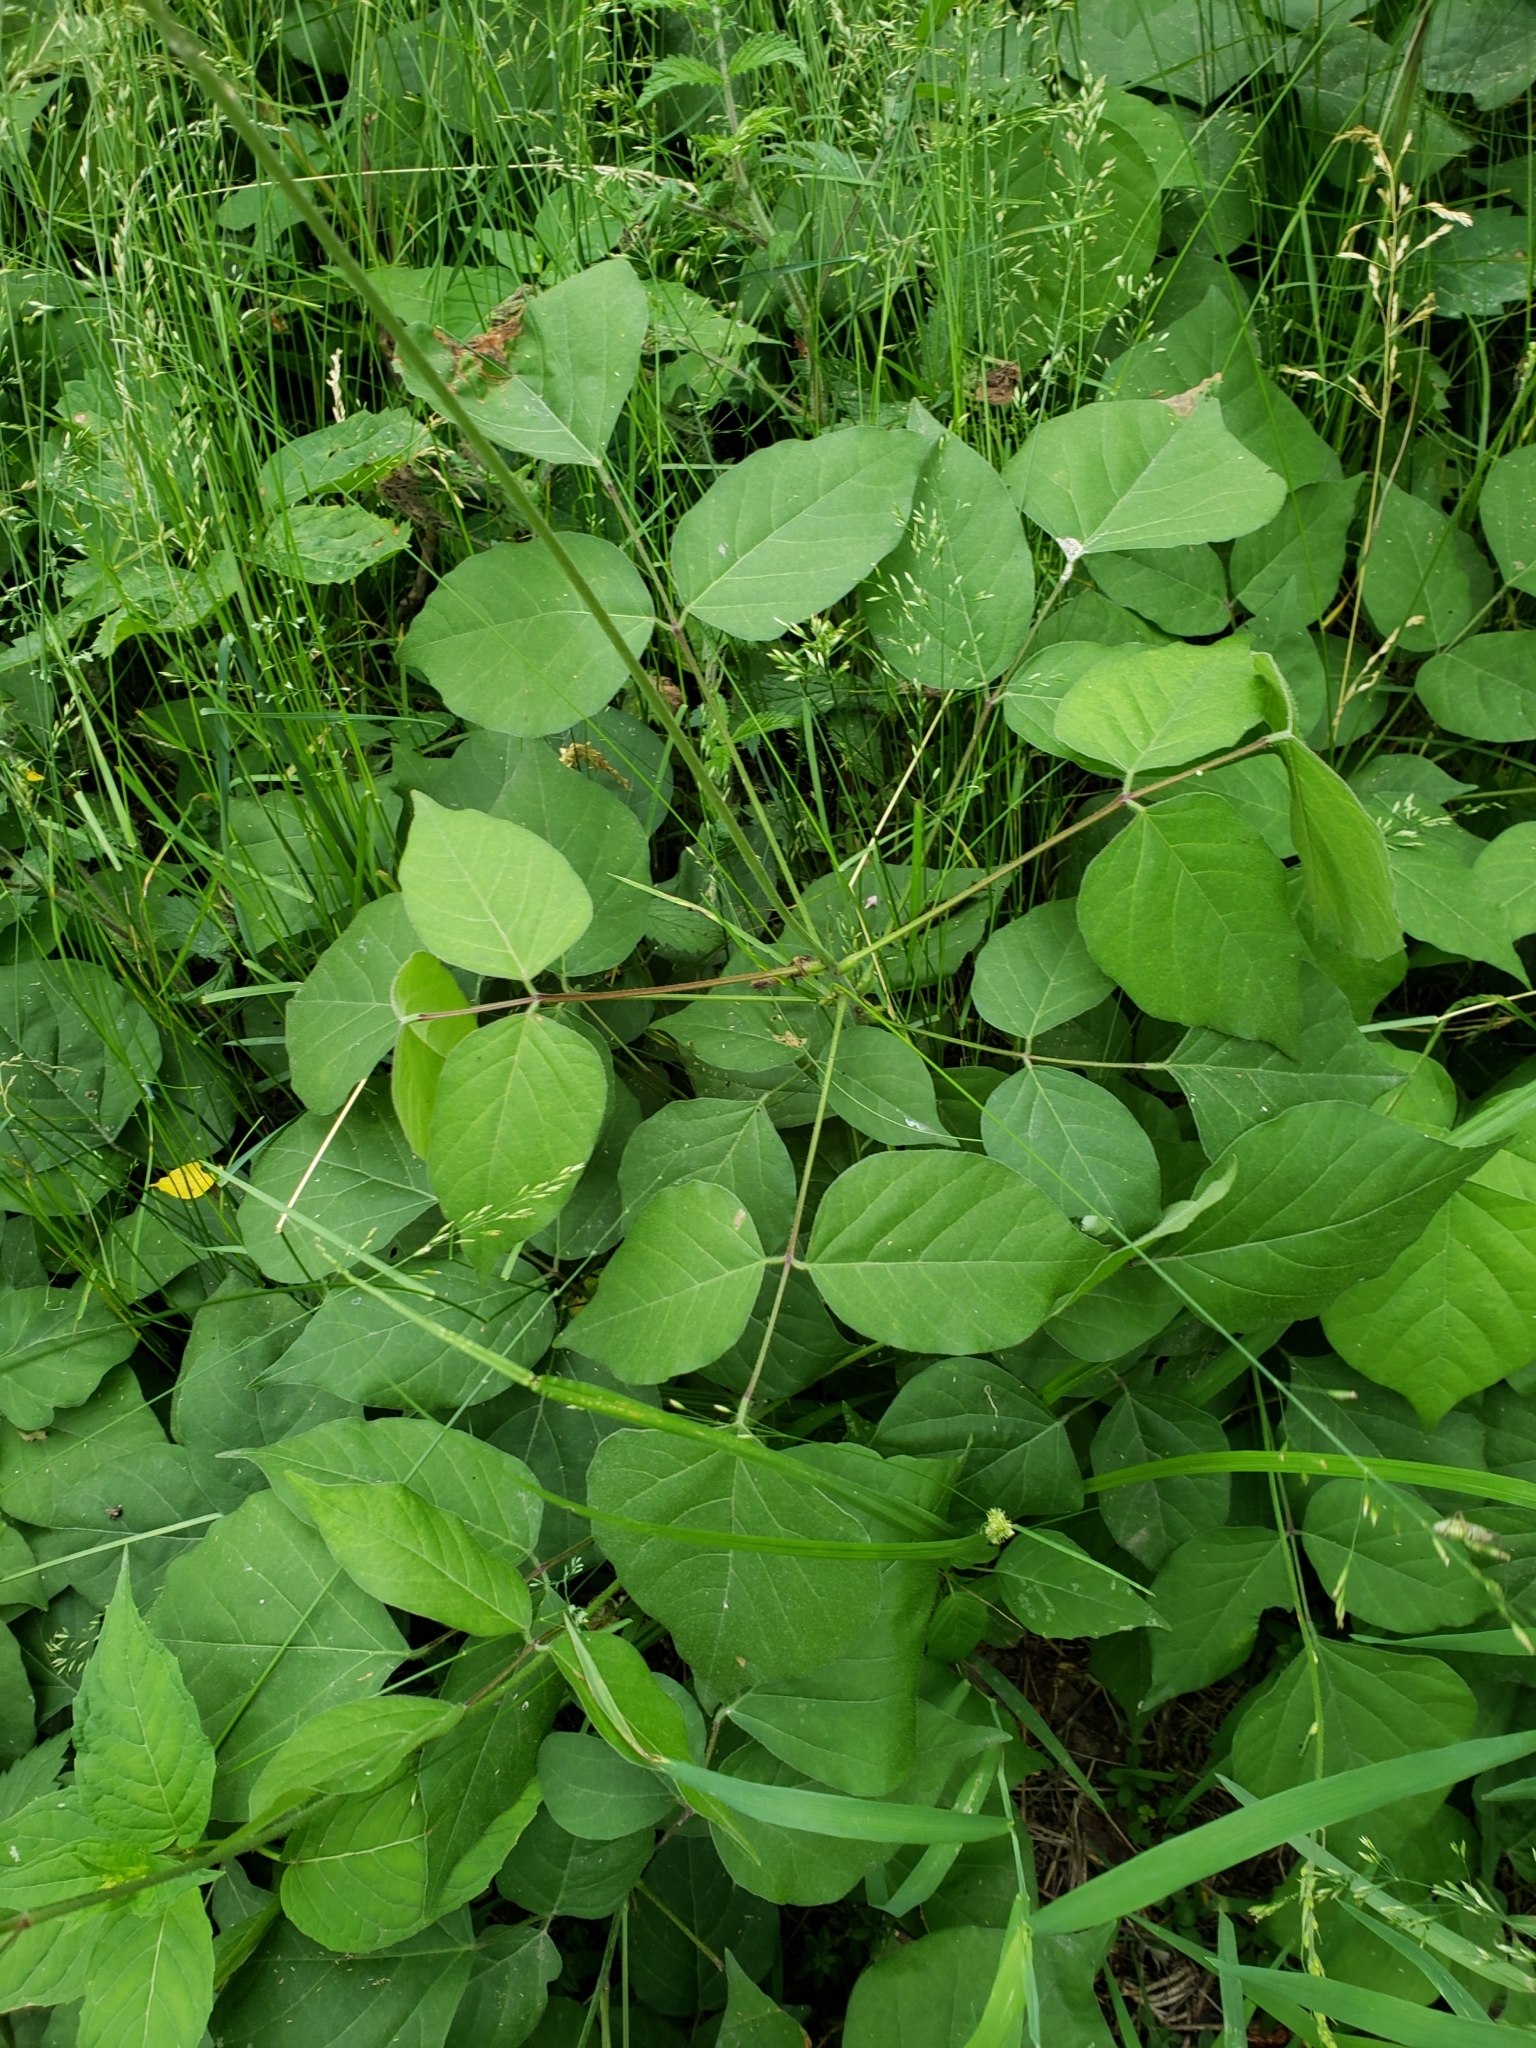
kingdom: Plantae
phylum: Tracheophyta
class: Magnoliopsida
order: Fabales
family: Fabaceae
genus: Hylodesmum
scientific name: Hylodesmum glutinosum
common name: Clustered-leaved tick-trefoil
